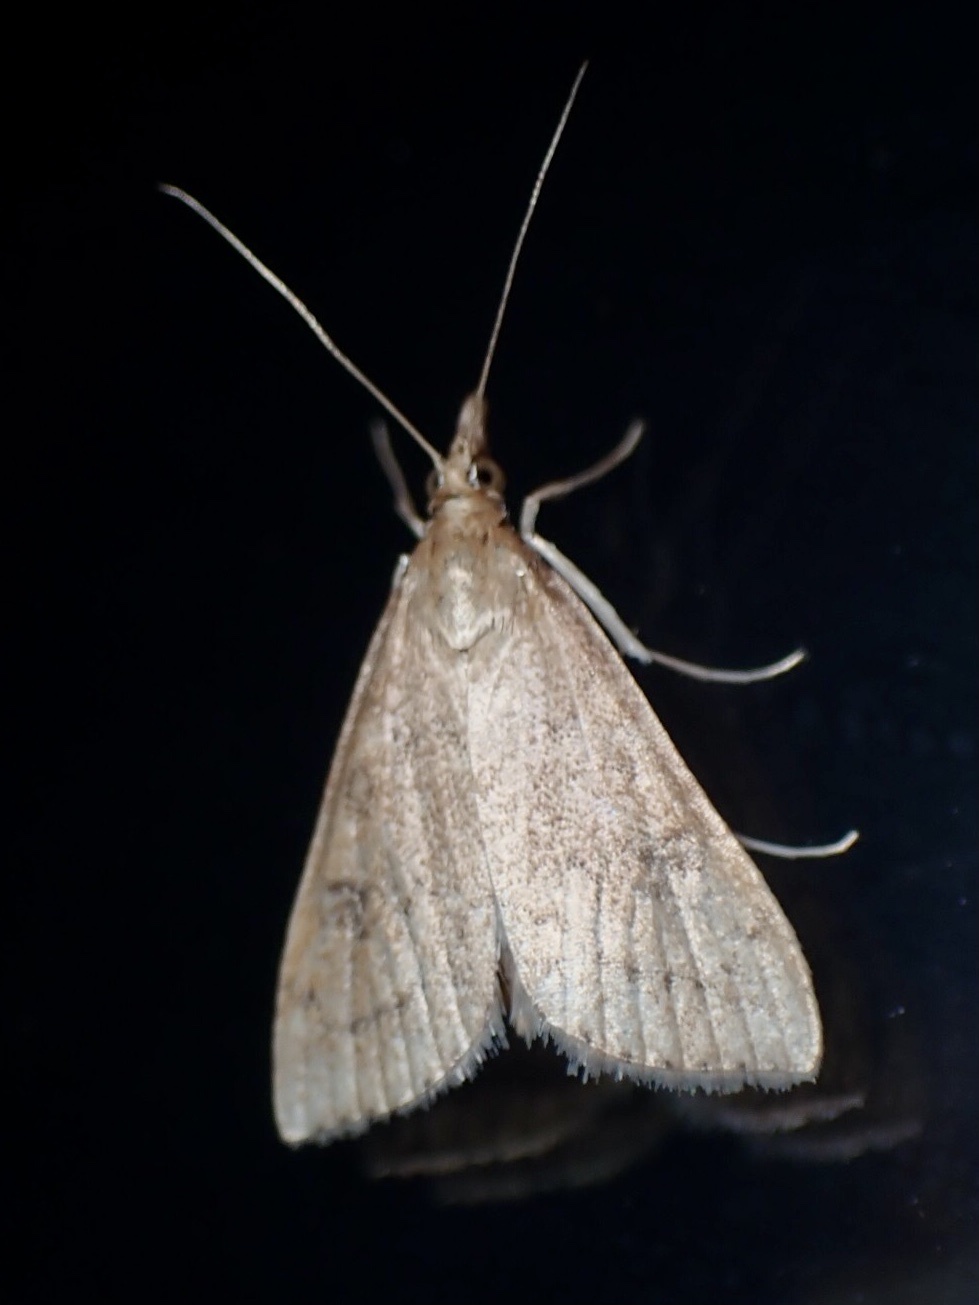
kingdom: Animalia
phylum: Arthropoda
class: Insecta
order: Lepidoptera
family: Crambidae
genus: Udea
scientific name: Udea rubigalis
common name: Celery leaftier moth
